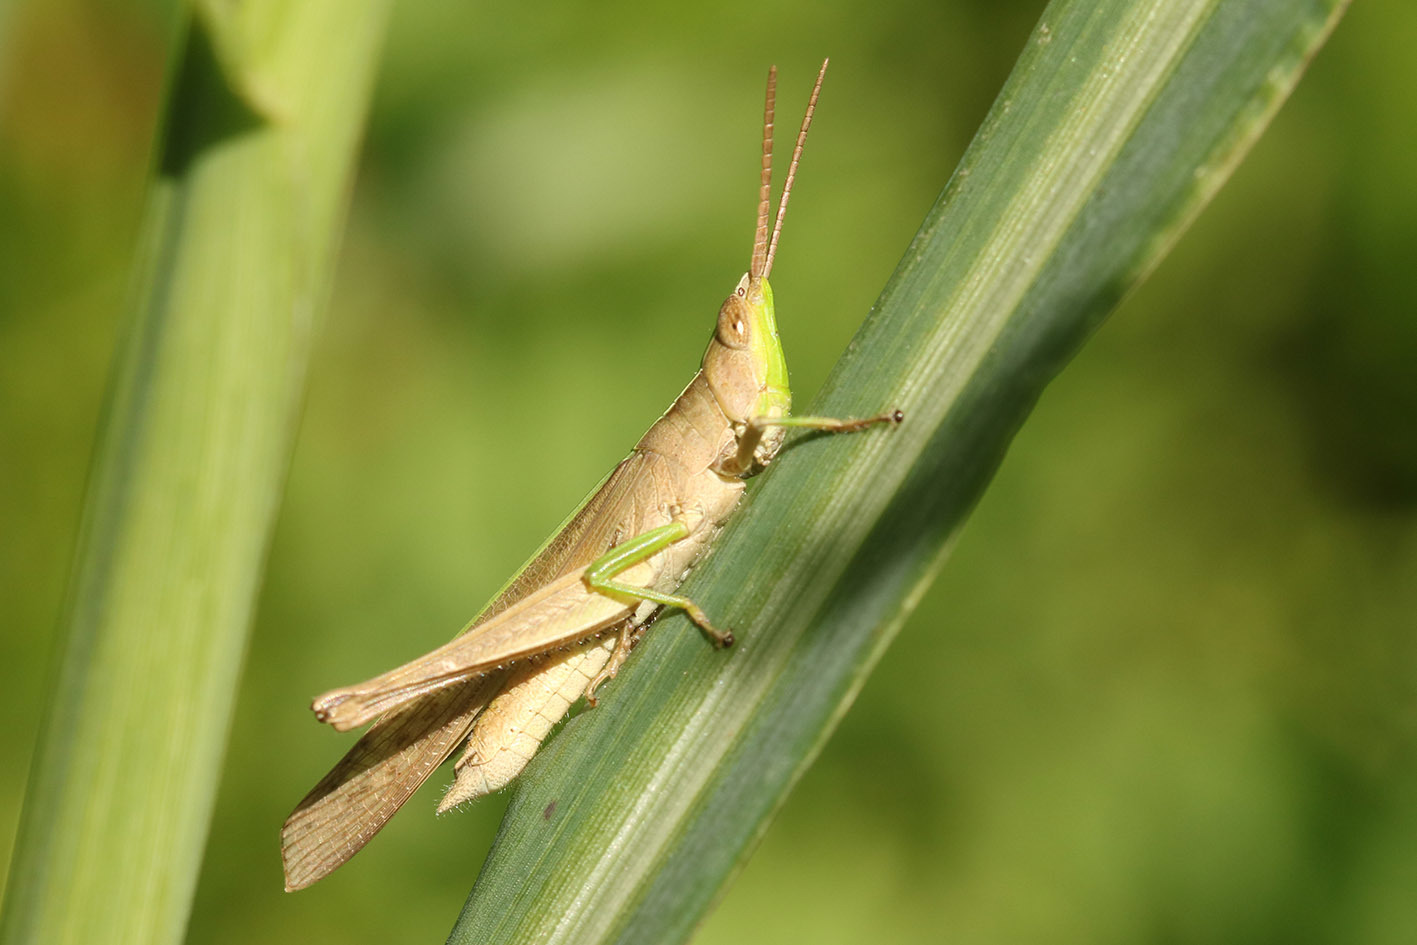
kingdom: Animalia
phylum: Arthropoda
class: Insecta
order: Orthoptera
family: Acrididae
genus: Metaleptea
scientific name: Metaleptea adspersa
